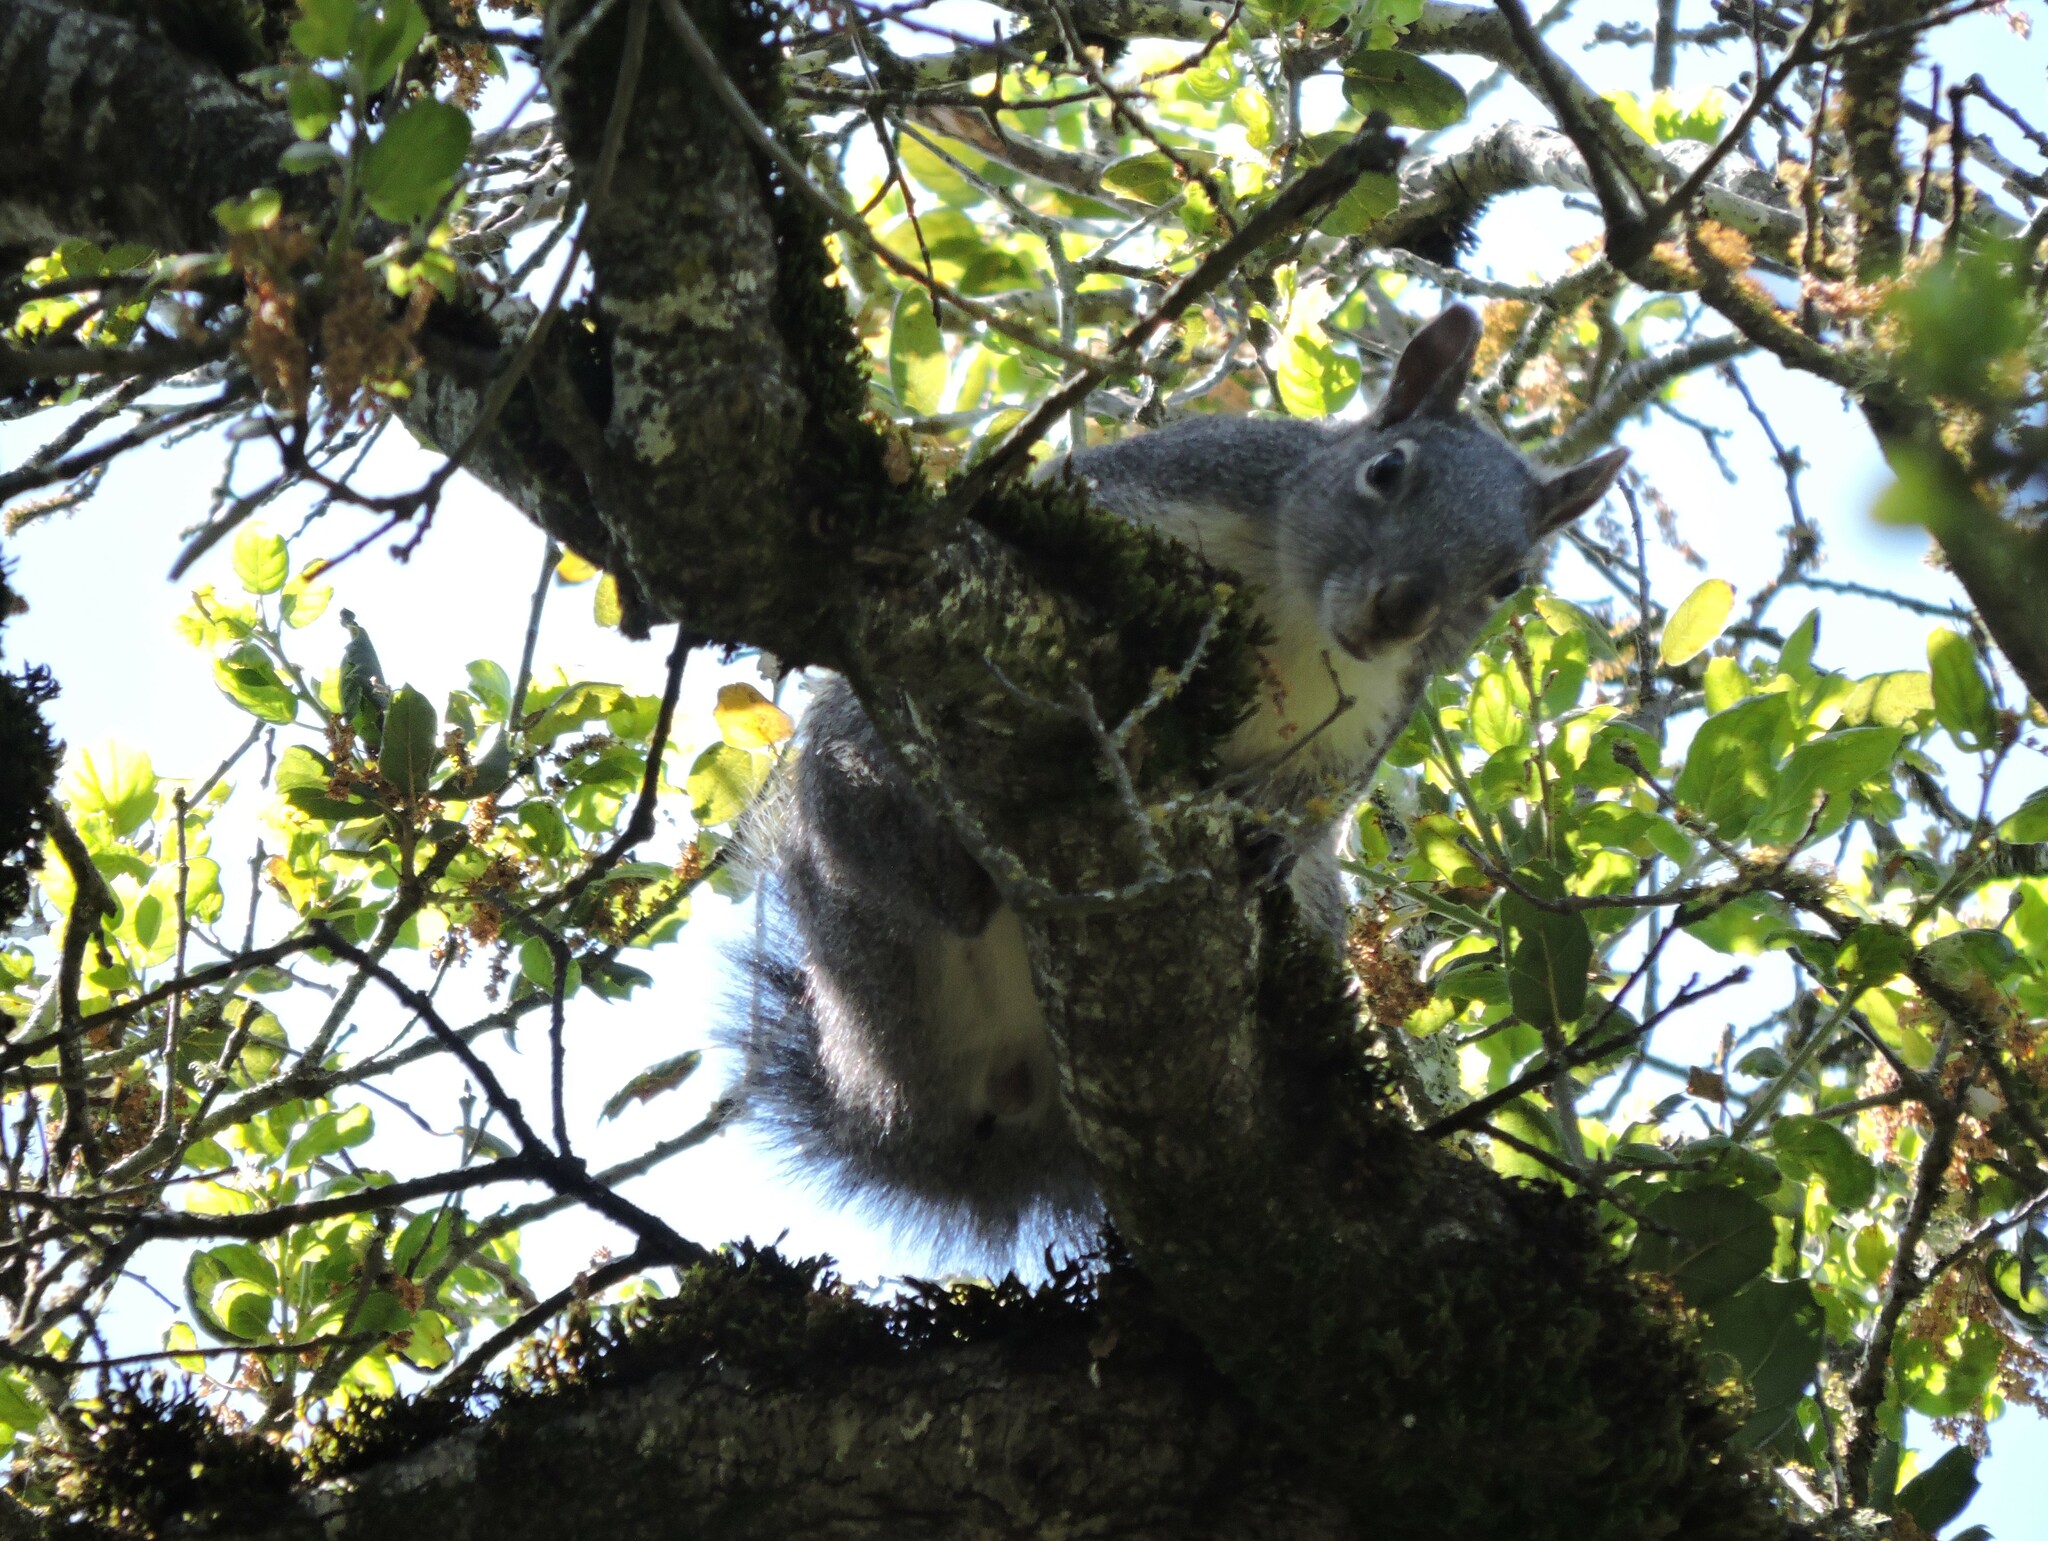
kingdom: Animalia
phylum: Chordata
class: Mammalia
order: Rodentia
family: Sciuridae
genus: Sciurus
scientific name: Sciurus griseus
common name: Western gray squirrel
